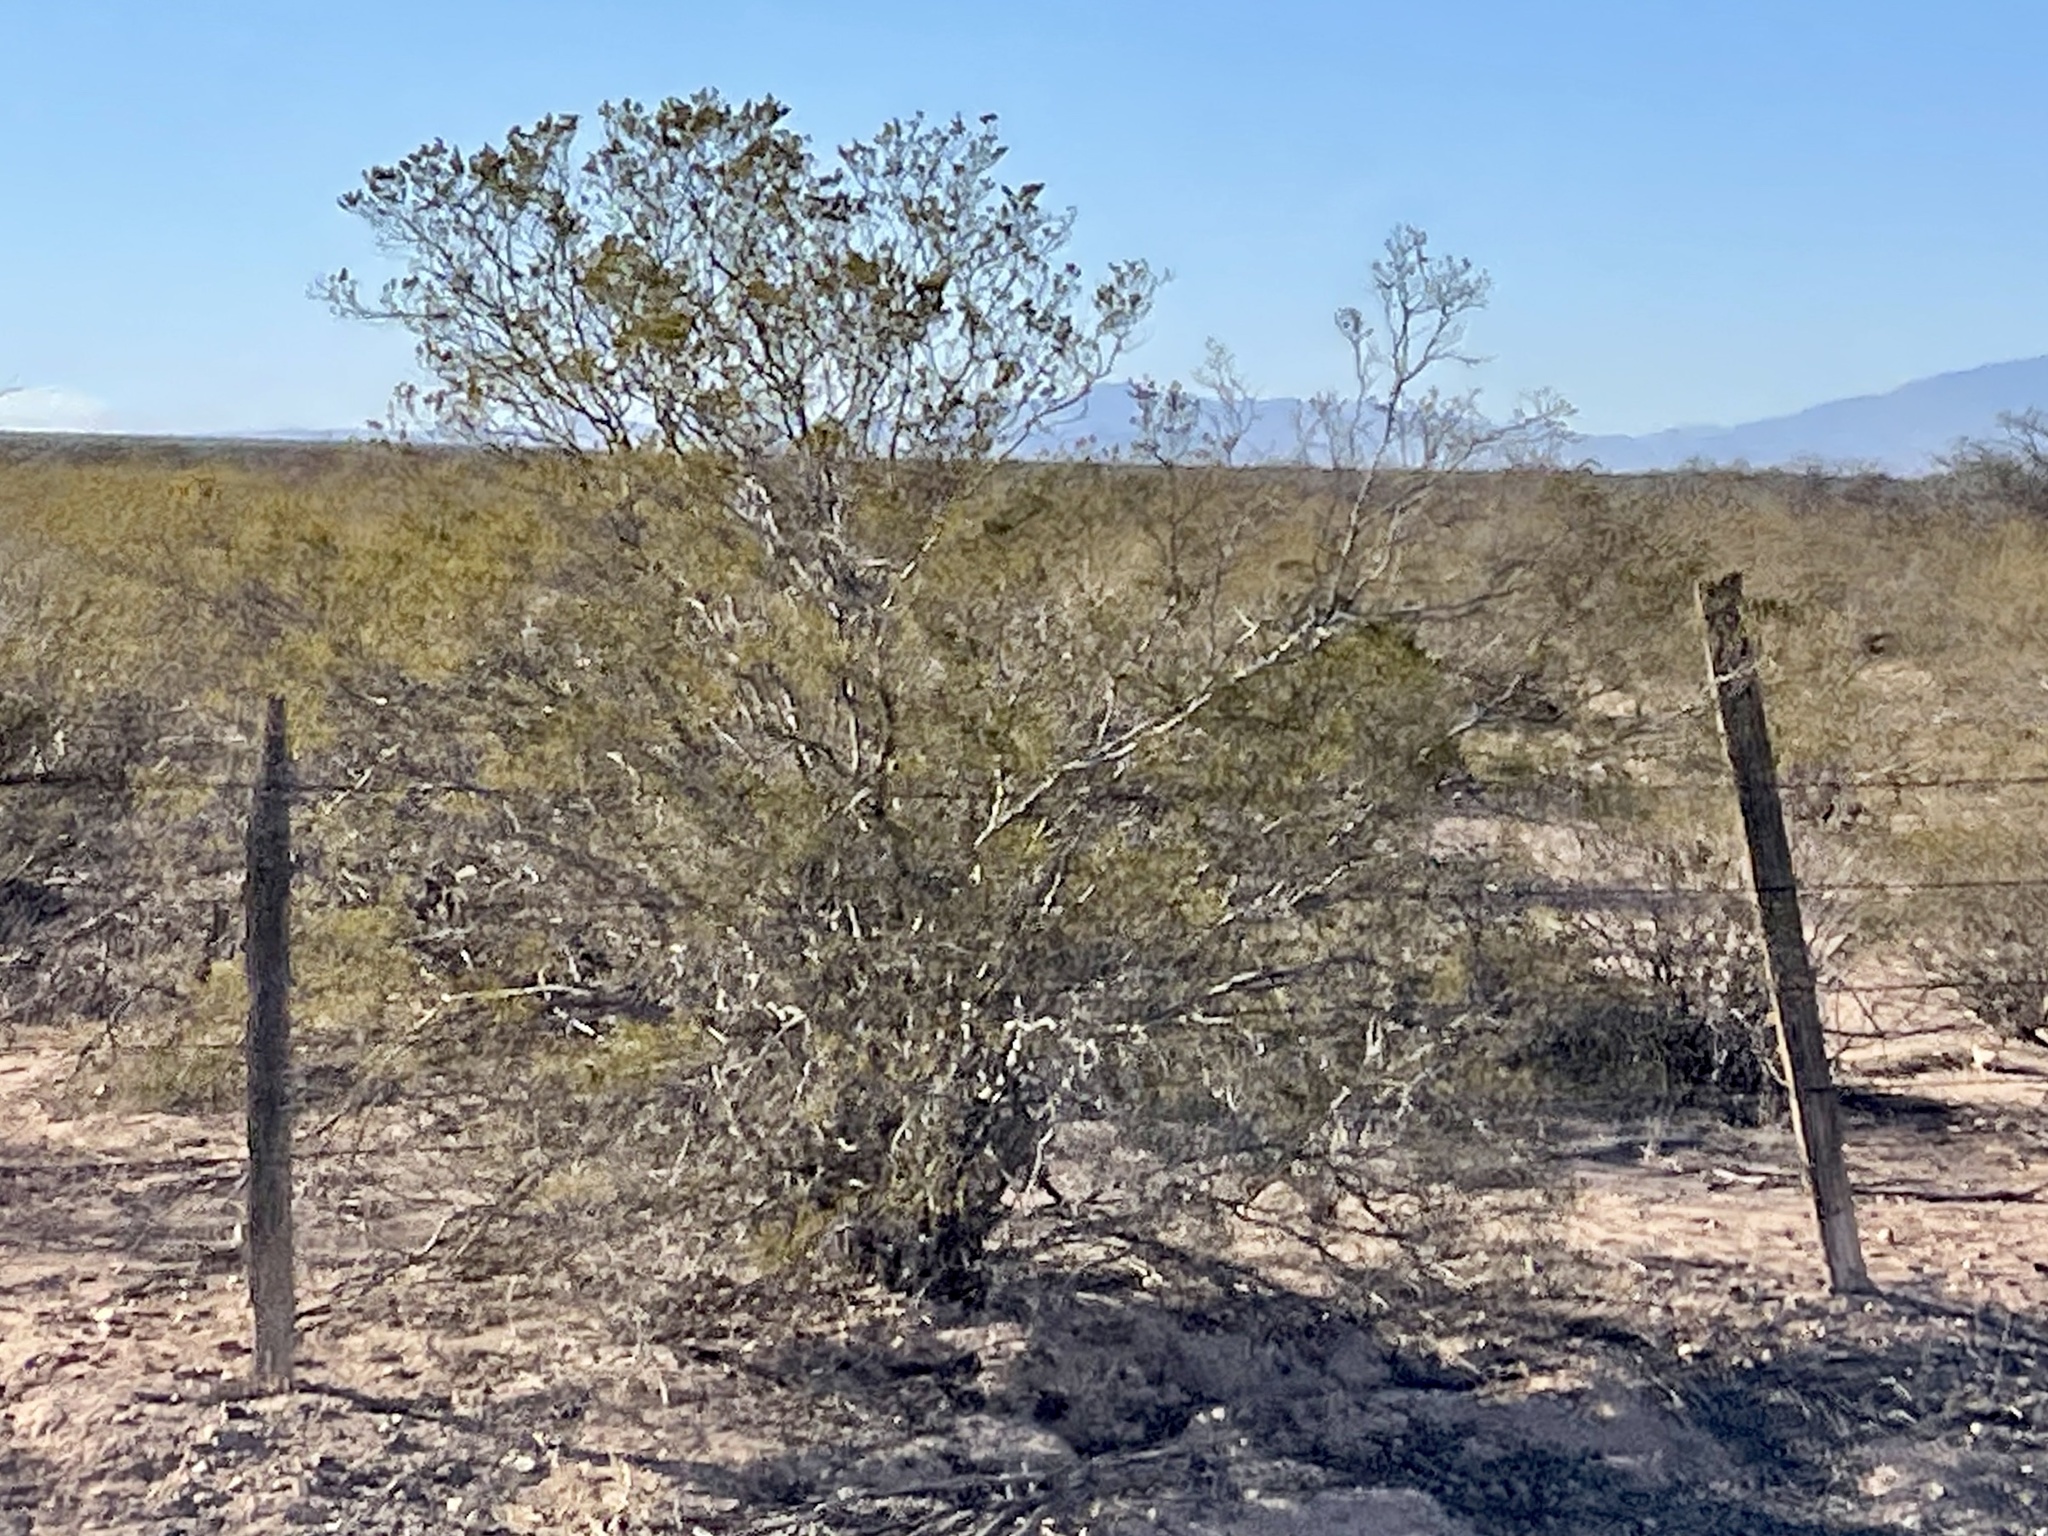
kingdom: Plantae
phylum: Tracheophyta
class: Magnoliopsida
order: Zygophyllales
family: Zygophyllaceae
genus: Larrea
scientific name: Larrea tridentata
